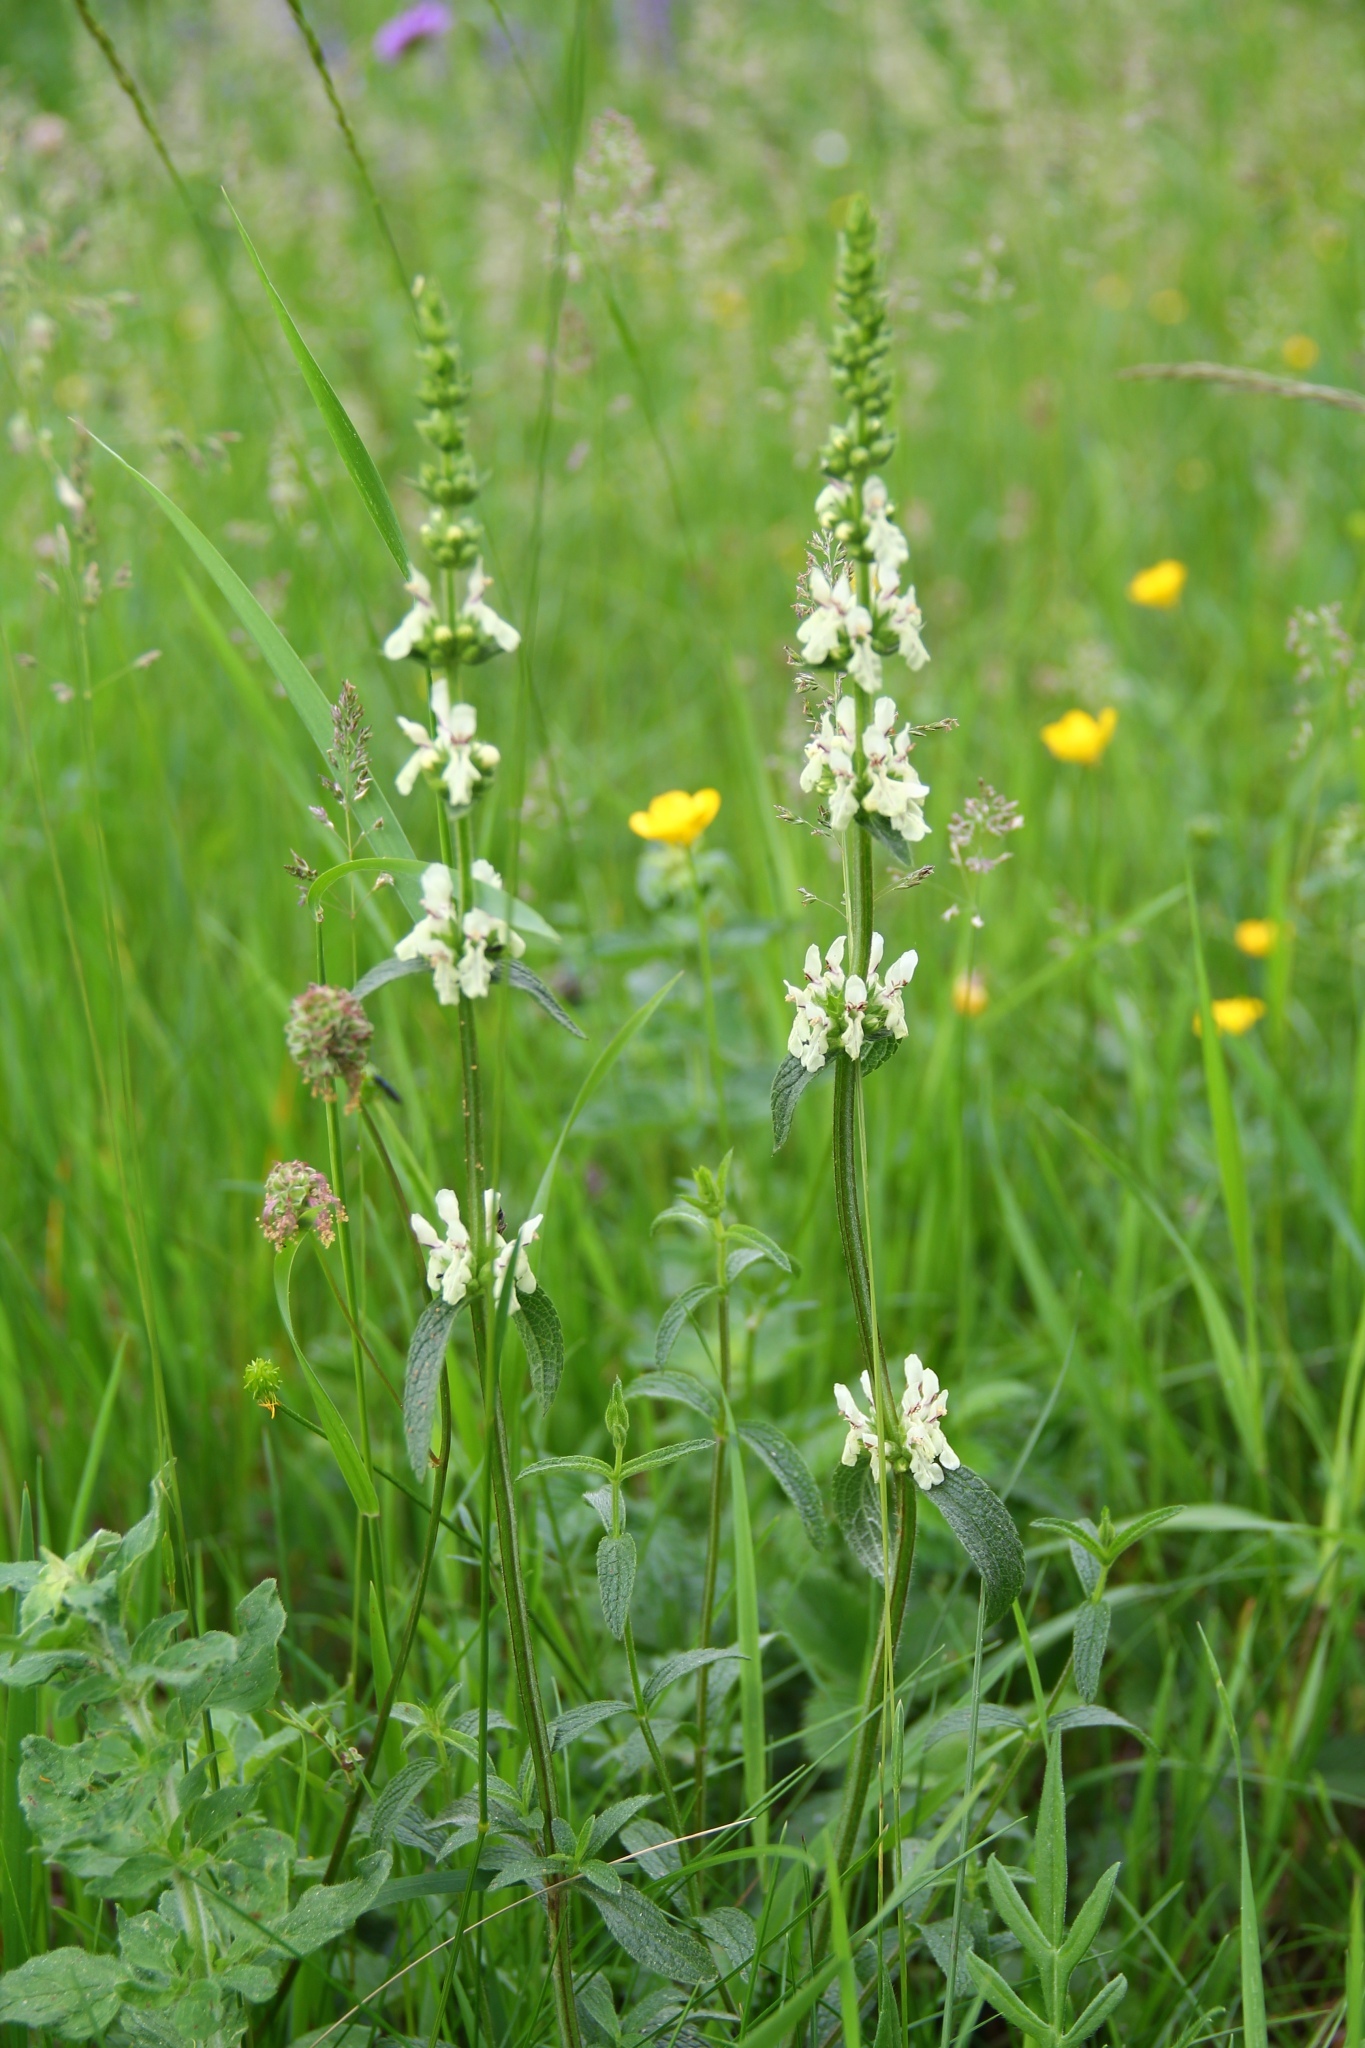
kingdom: Plantae
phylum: Tracheophyta
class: Magnoliopsida
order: Lamiales
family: Lamiaceae
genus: Stachys
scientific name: Stachys recta
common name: Perennial yellow-woundwort
